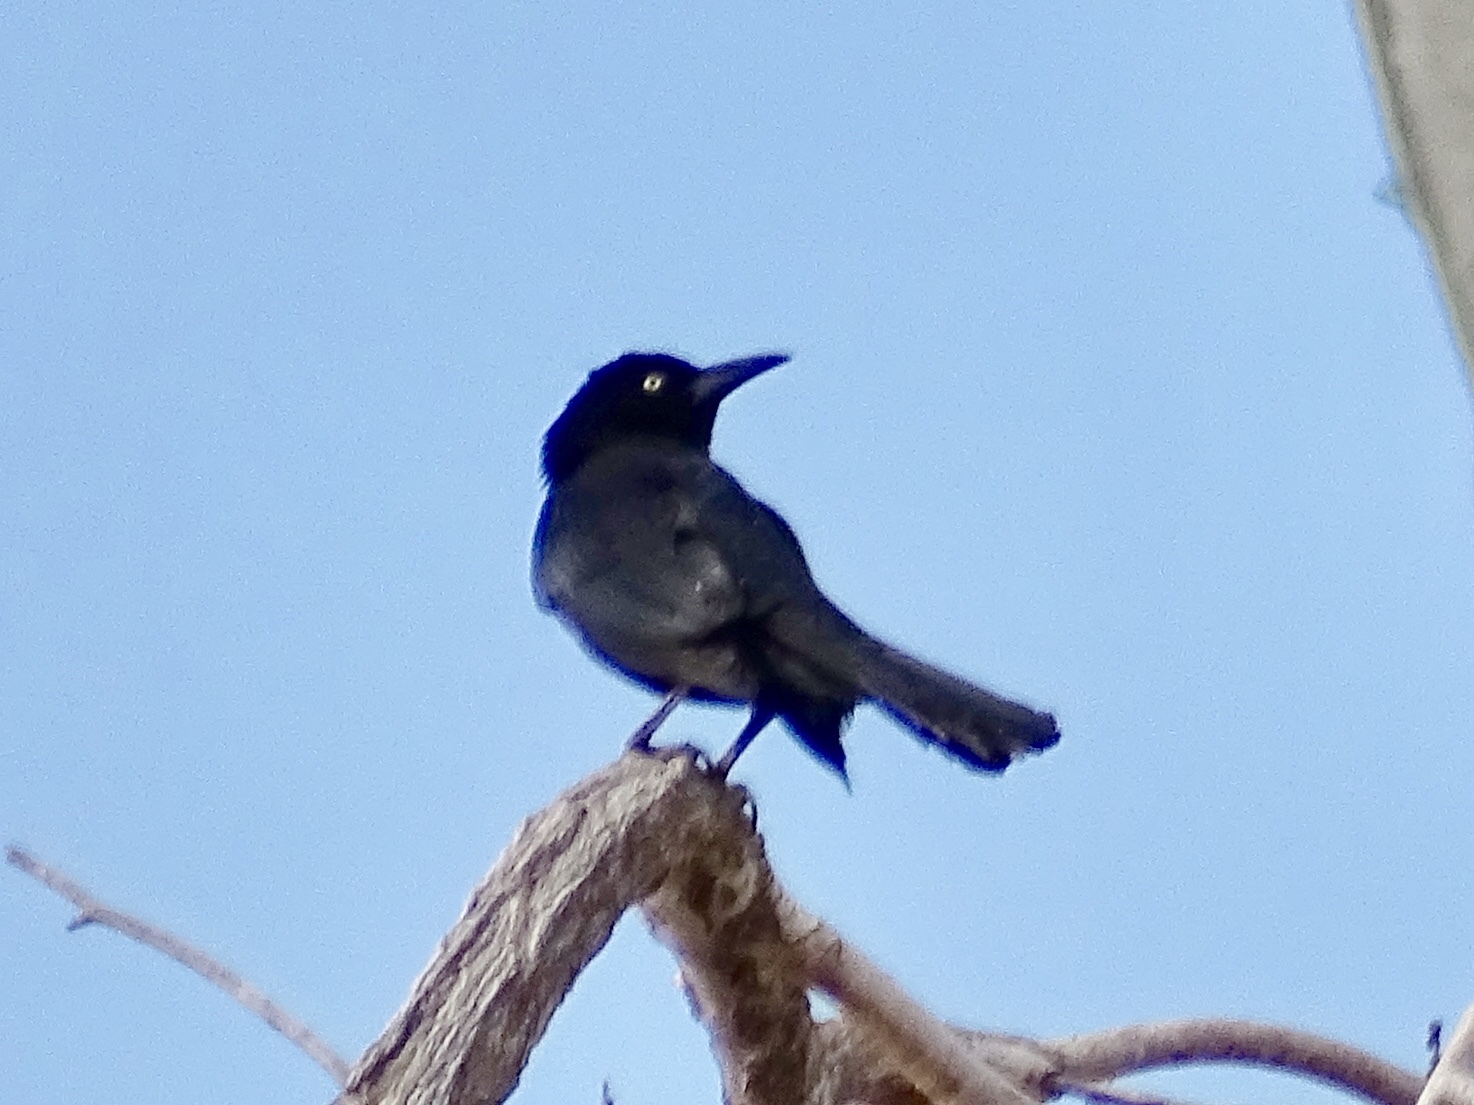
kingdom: Animalia
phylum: Chordata
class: Aves
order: Passeriformes
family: Icteridae
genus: Quiscalus
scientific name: Quiscalus mexicanus
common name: Great-tailed grackle
